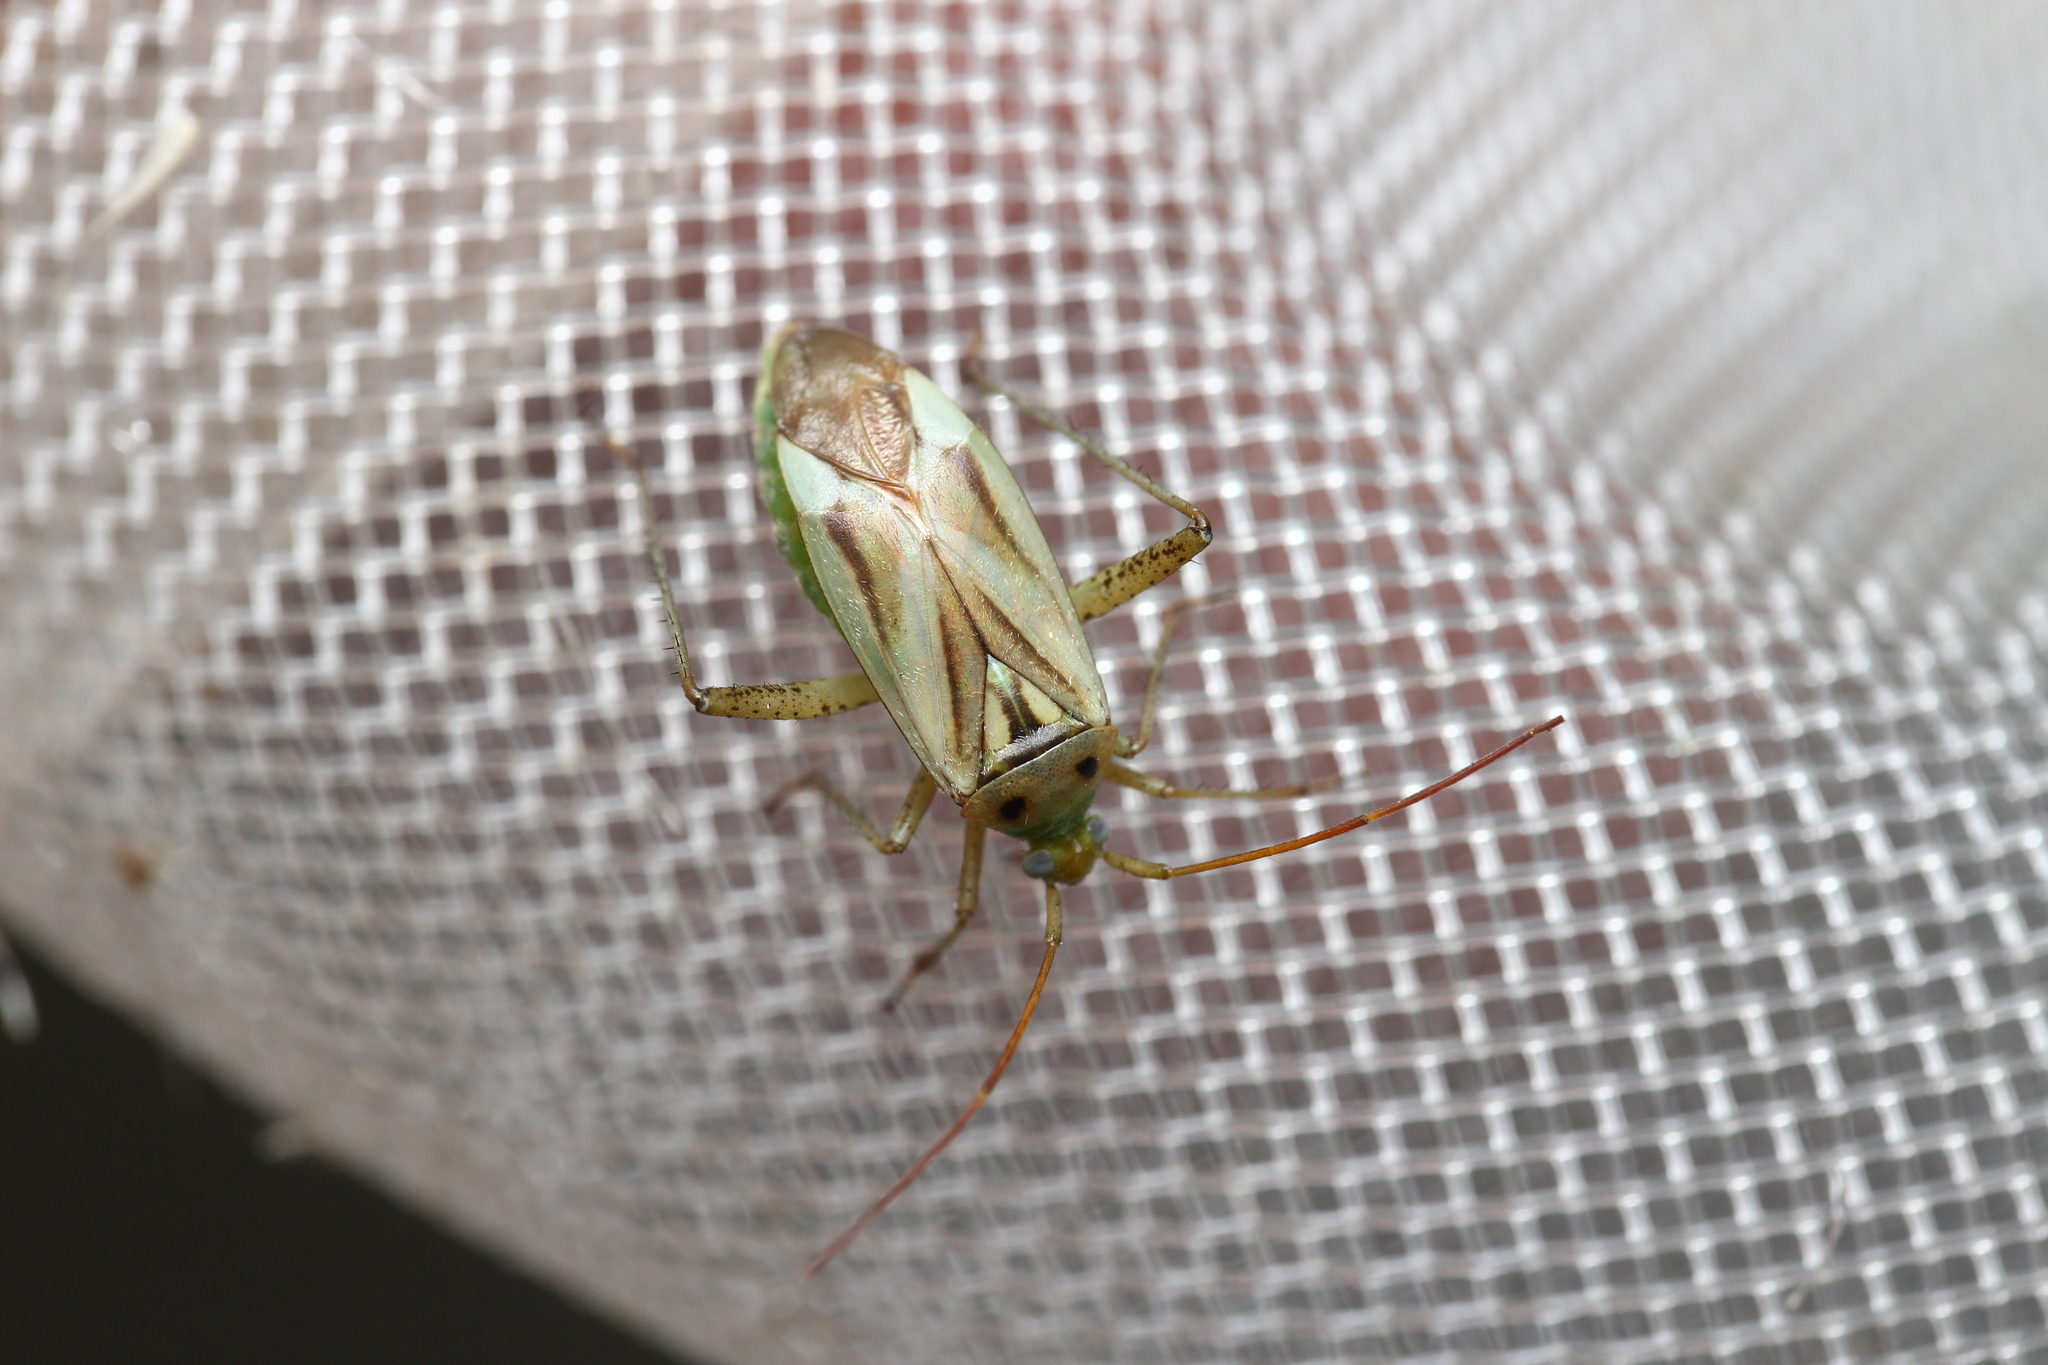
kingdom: Animalia
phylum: Arthropoda
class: Insecta
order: Hemiptera
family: Miridae
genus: Adelphocoris
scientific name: Adelphocoris lineolatus
